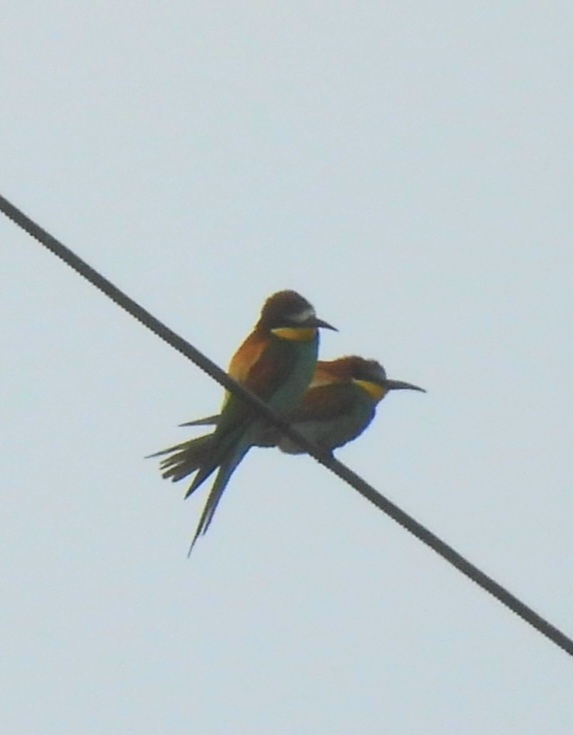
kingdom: Animalia
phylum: Chordata
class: Aves
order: Coraciiformes
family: Meropidae
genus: Merops
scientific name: Merops apiaster
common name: European bee-eater
